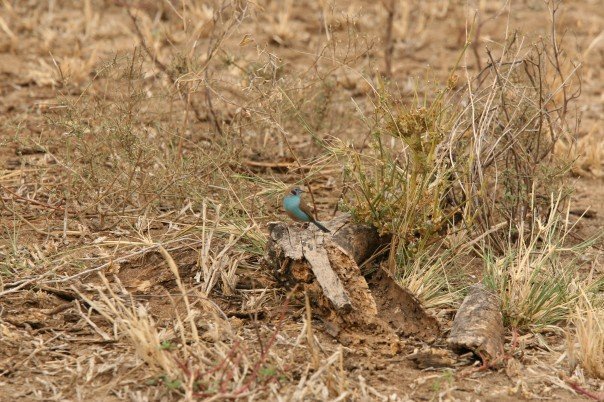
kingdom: Animalia
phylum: Chordata
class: Aves
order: Passeriformes
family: Estrildidae
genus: Uraeginthus
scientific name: Uraeginthus bengalus
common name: Red-cheeked cordon-bleu
